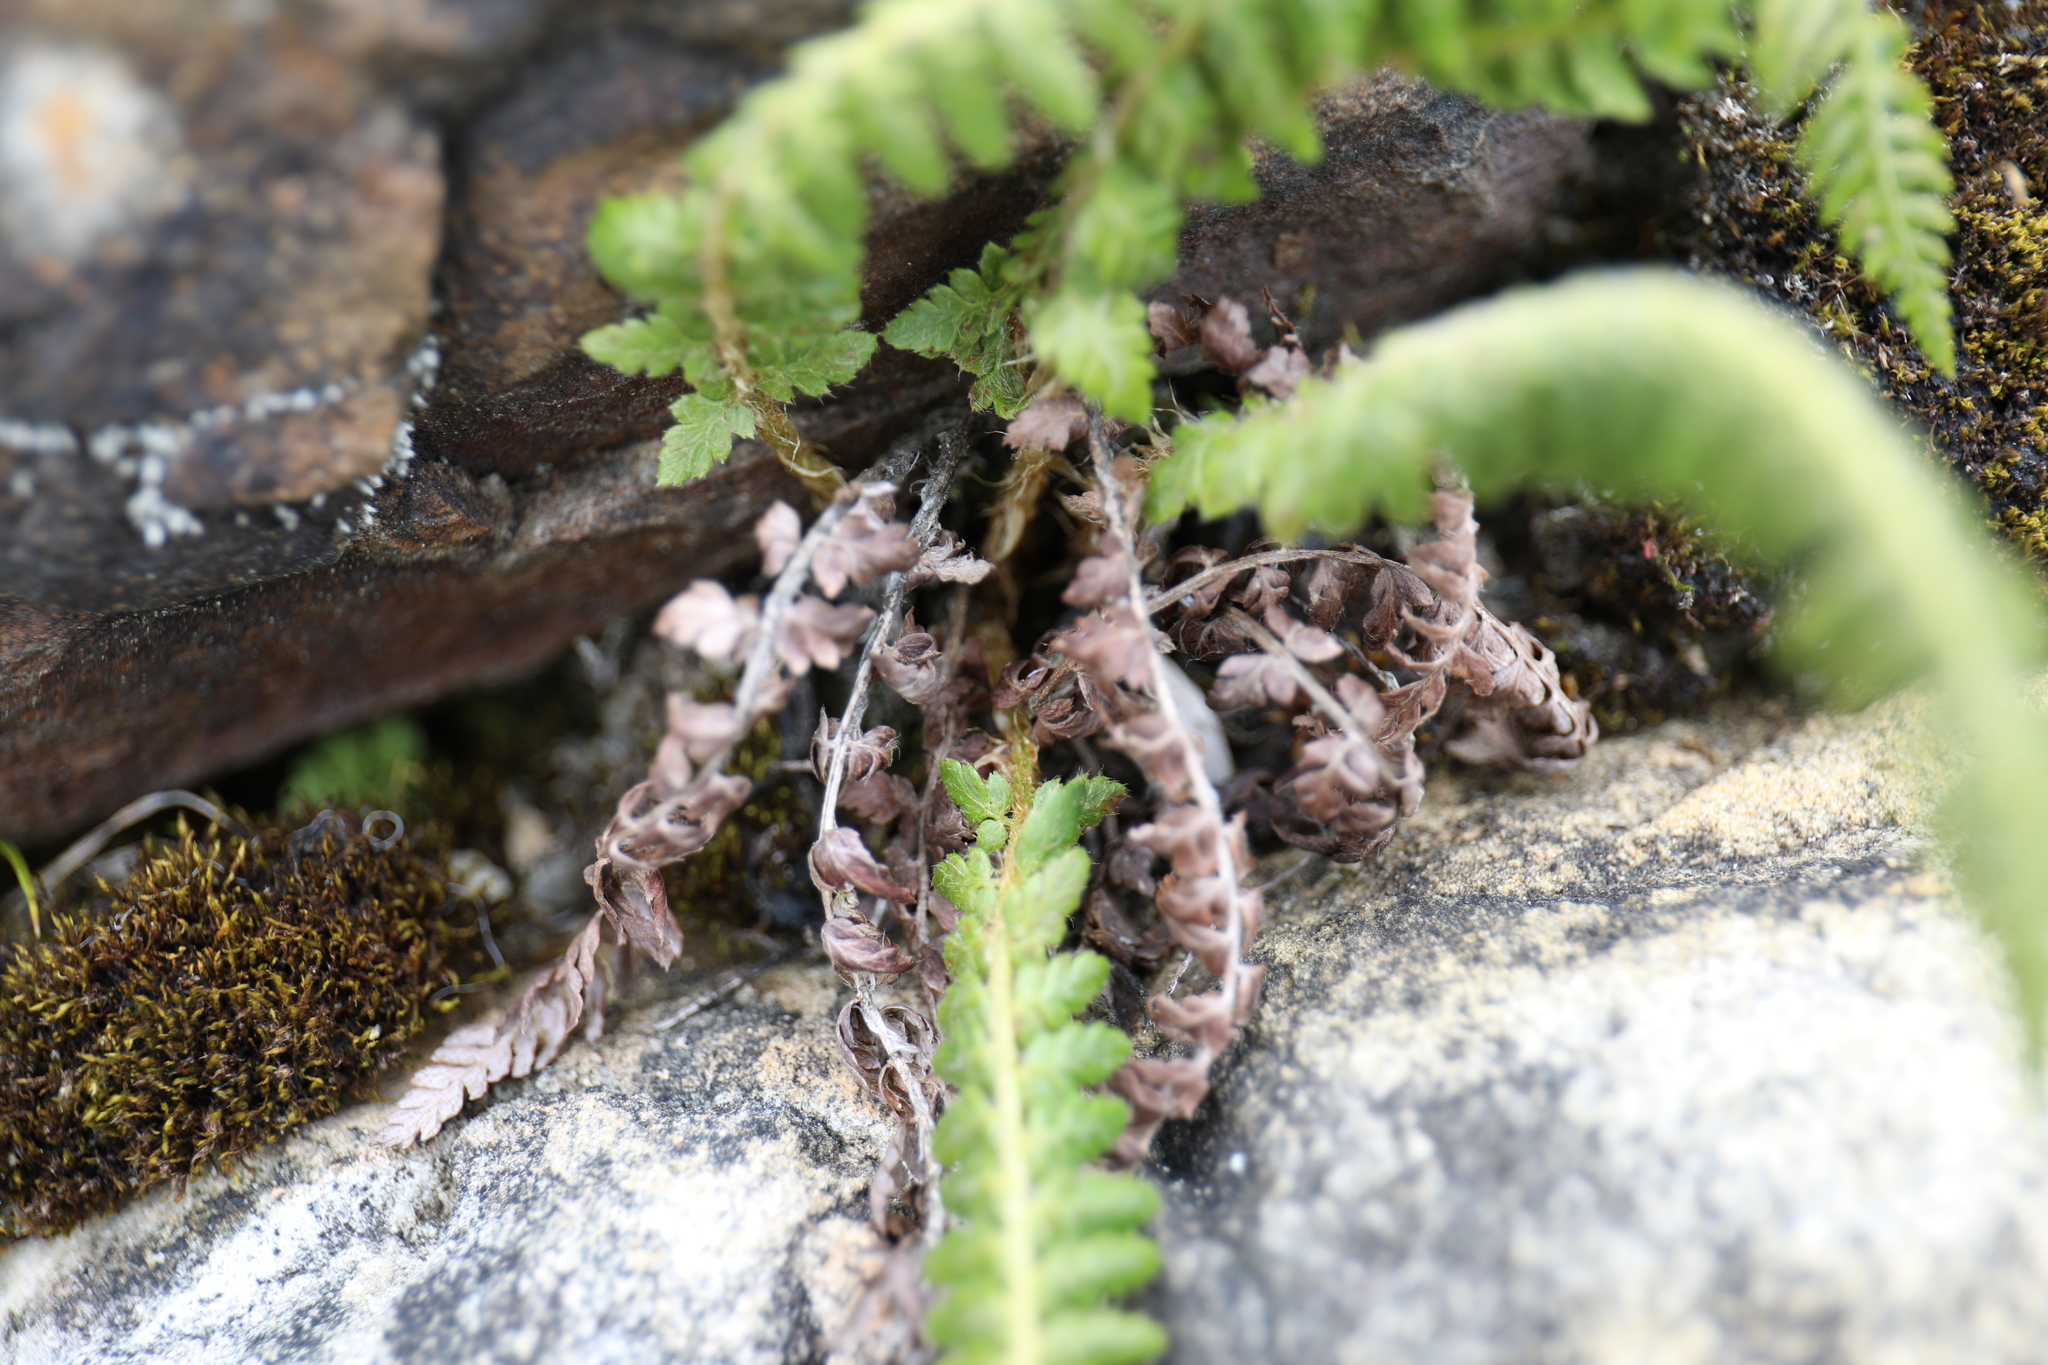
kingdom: Plantae
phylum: Tracheophyta
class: Polypodiopsida
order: Polypodiales
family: Dryopteridaceae
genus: Polystichum
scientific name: Polystichum sinense
